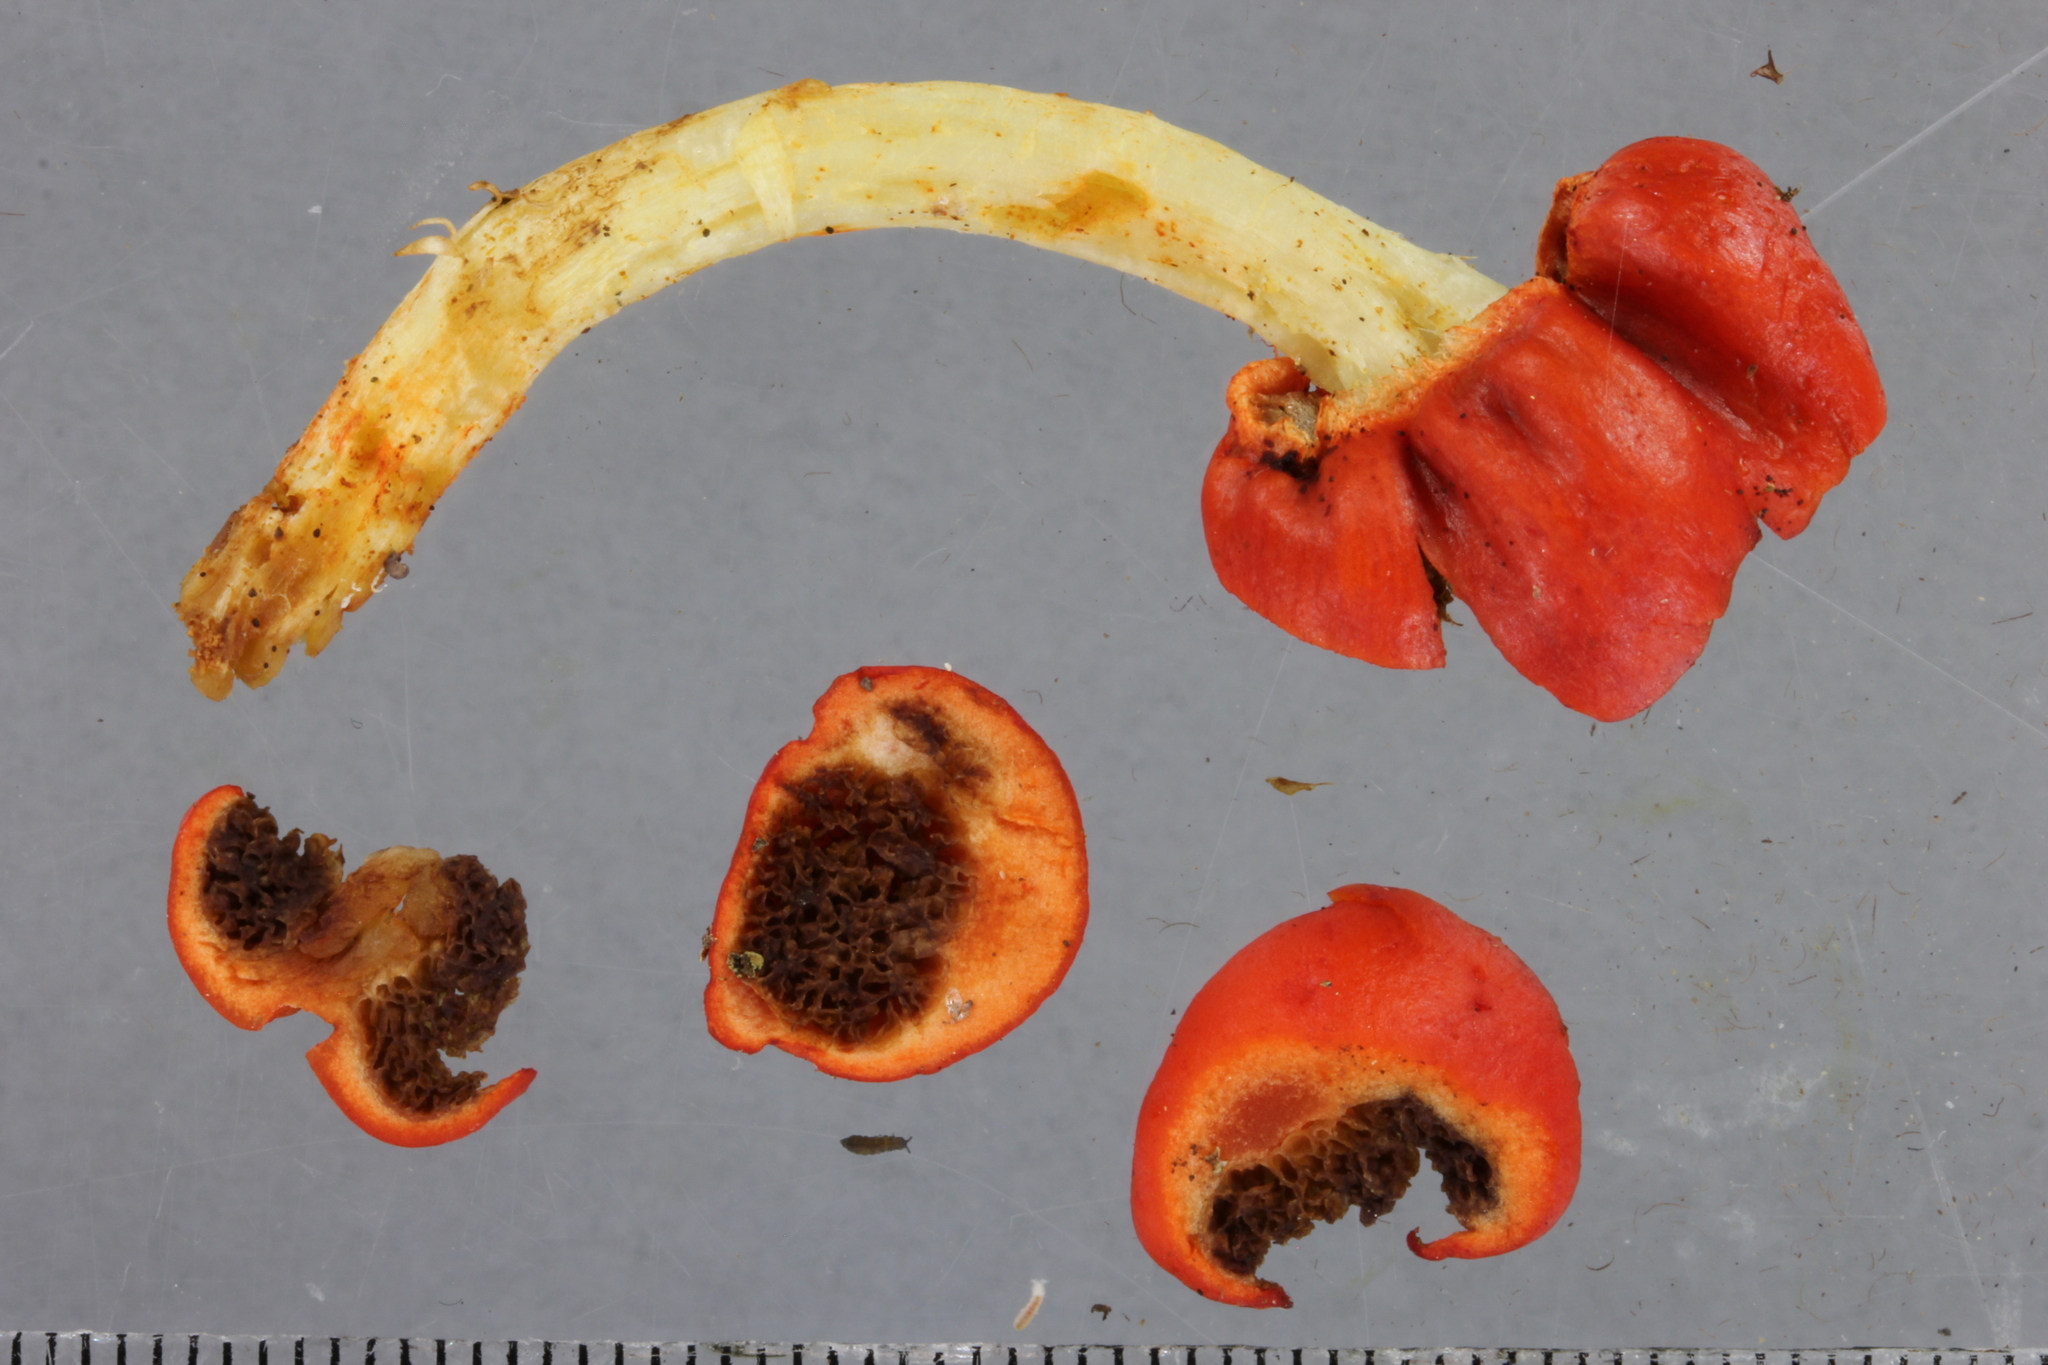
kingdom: Fungi
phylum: Basidiomycota
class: Agaricomycetes
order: Agaricales
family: Strophariaceae
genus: Leratiomyces
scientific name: Leratiomyces erythrocephalus
